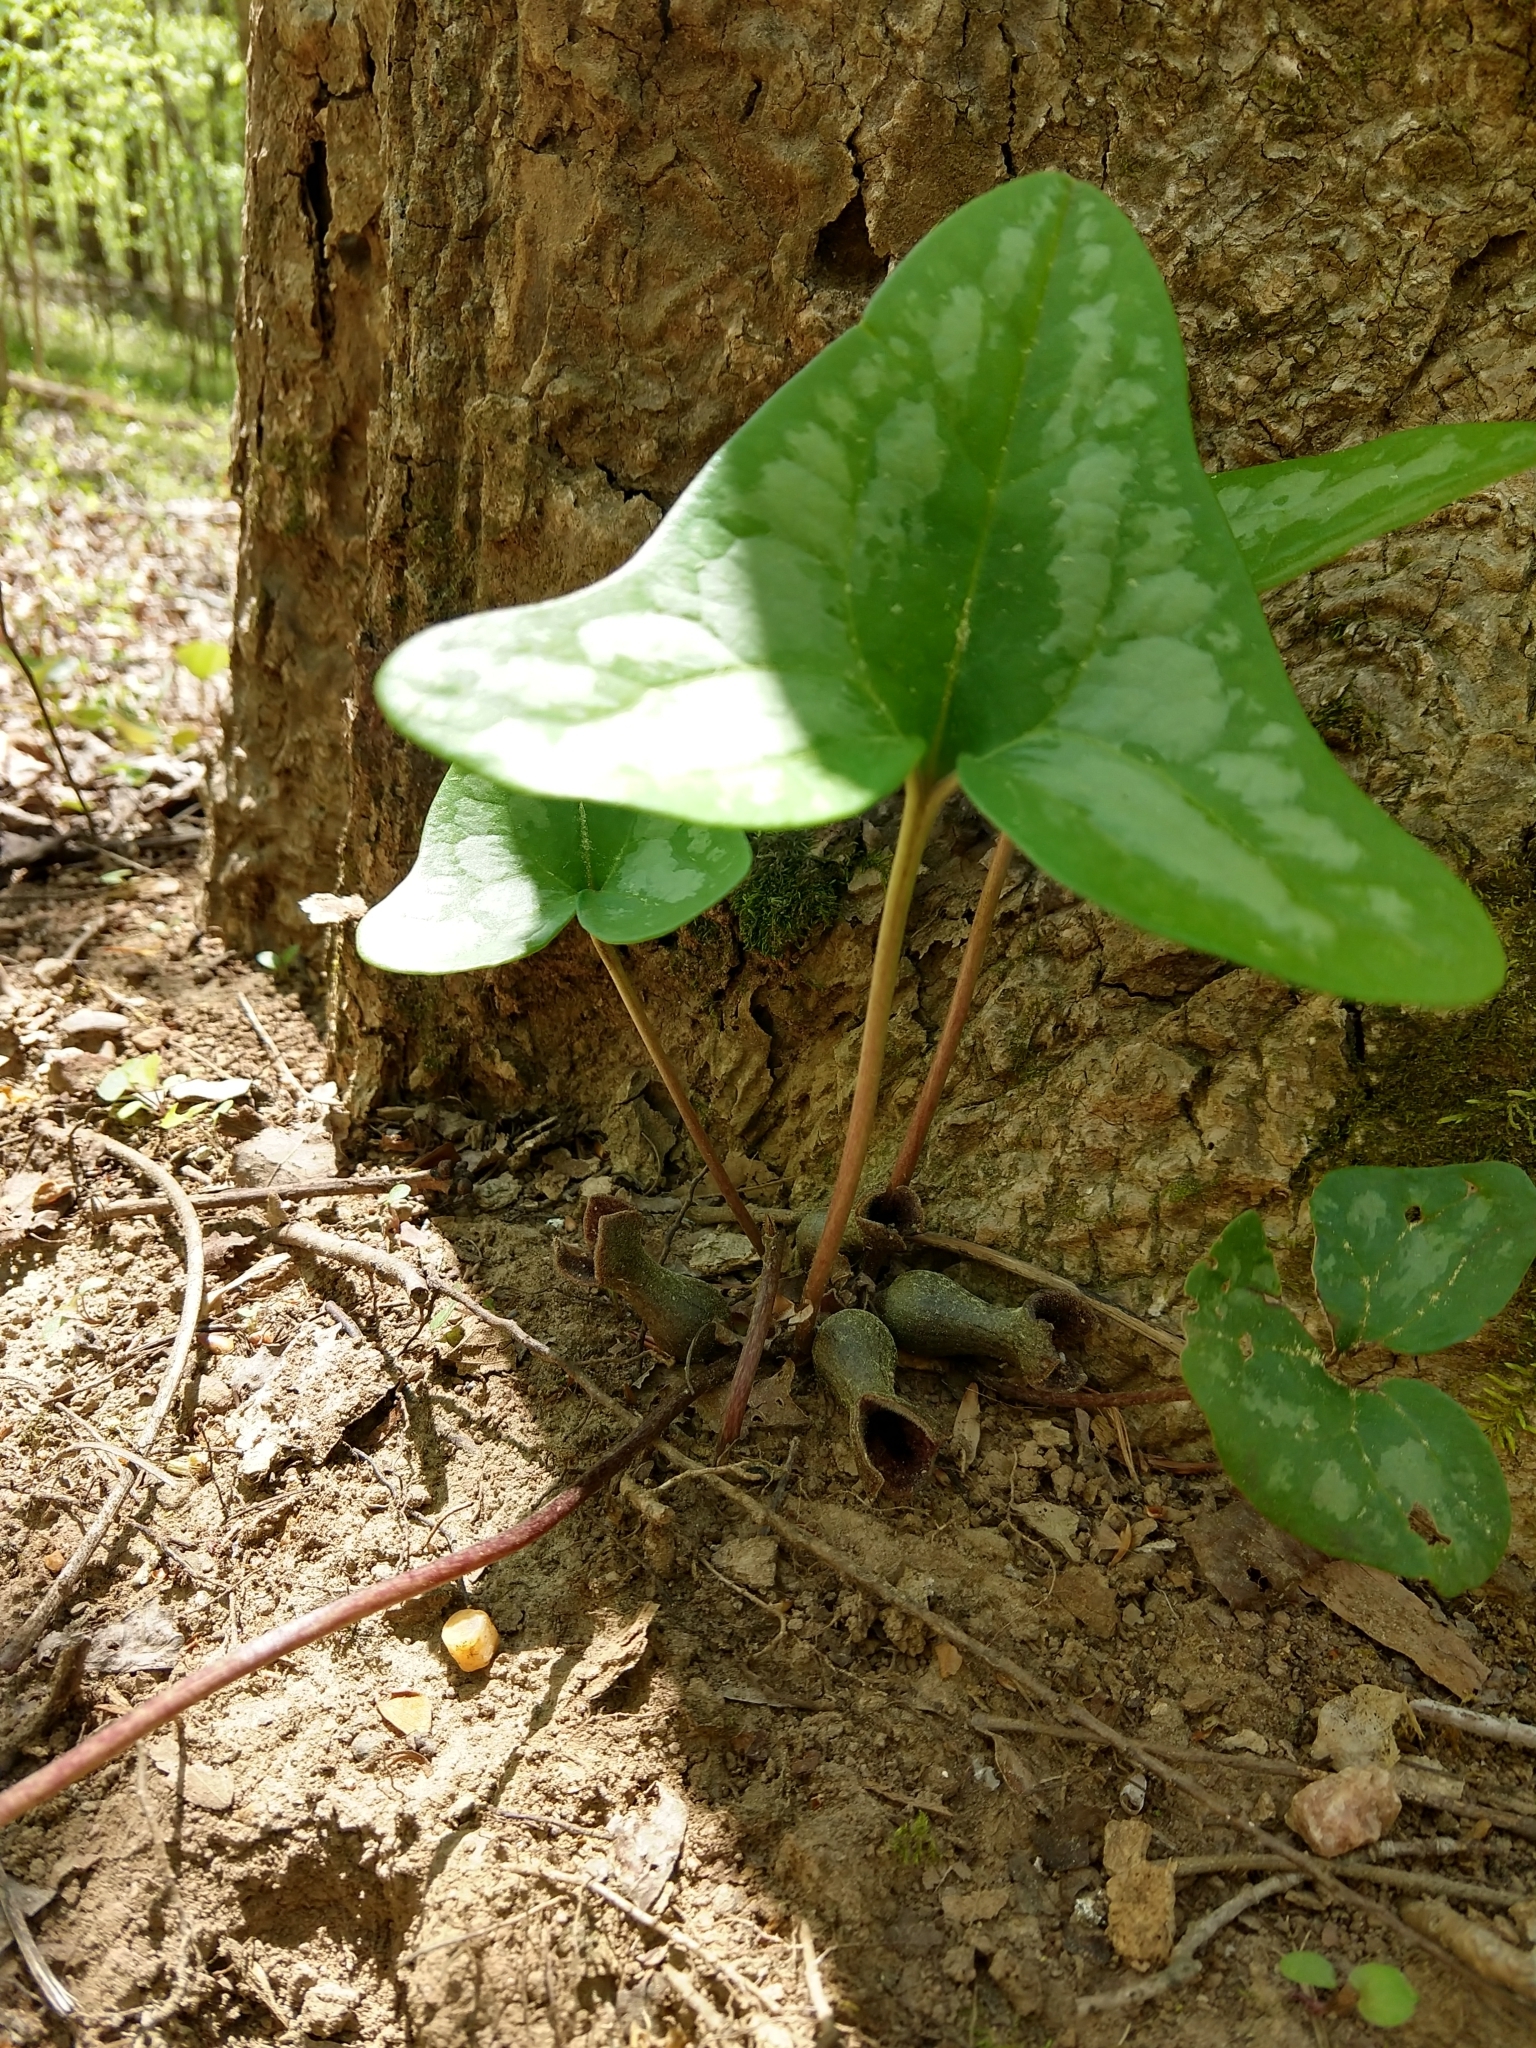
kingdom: Plantae
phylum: Tracheophyta
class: Magnoliopsida
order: Piperales
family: Aristolochiaceae
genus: Hexastylis
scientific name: Hexastylis arifolia
